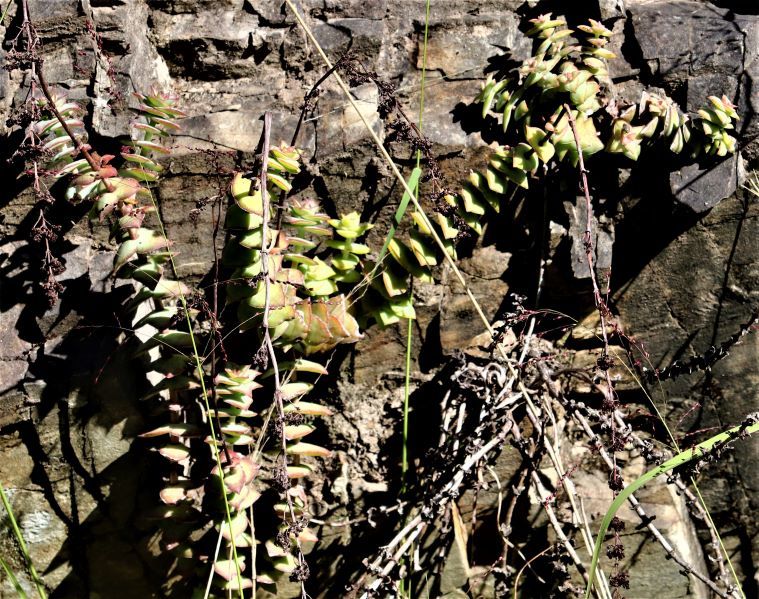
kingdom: Plantae
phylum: Tracheophyta
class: Magnoliopsida
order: Saxifragales
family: Crassulaceae
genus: Crassula
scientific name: Crassula perforata
